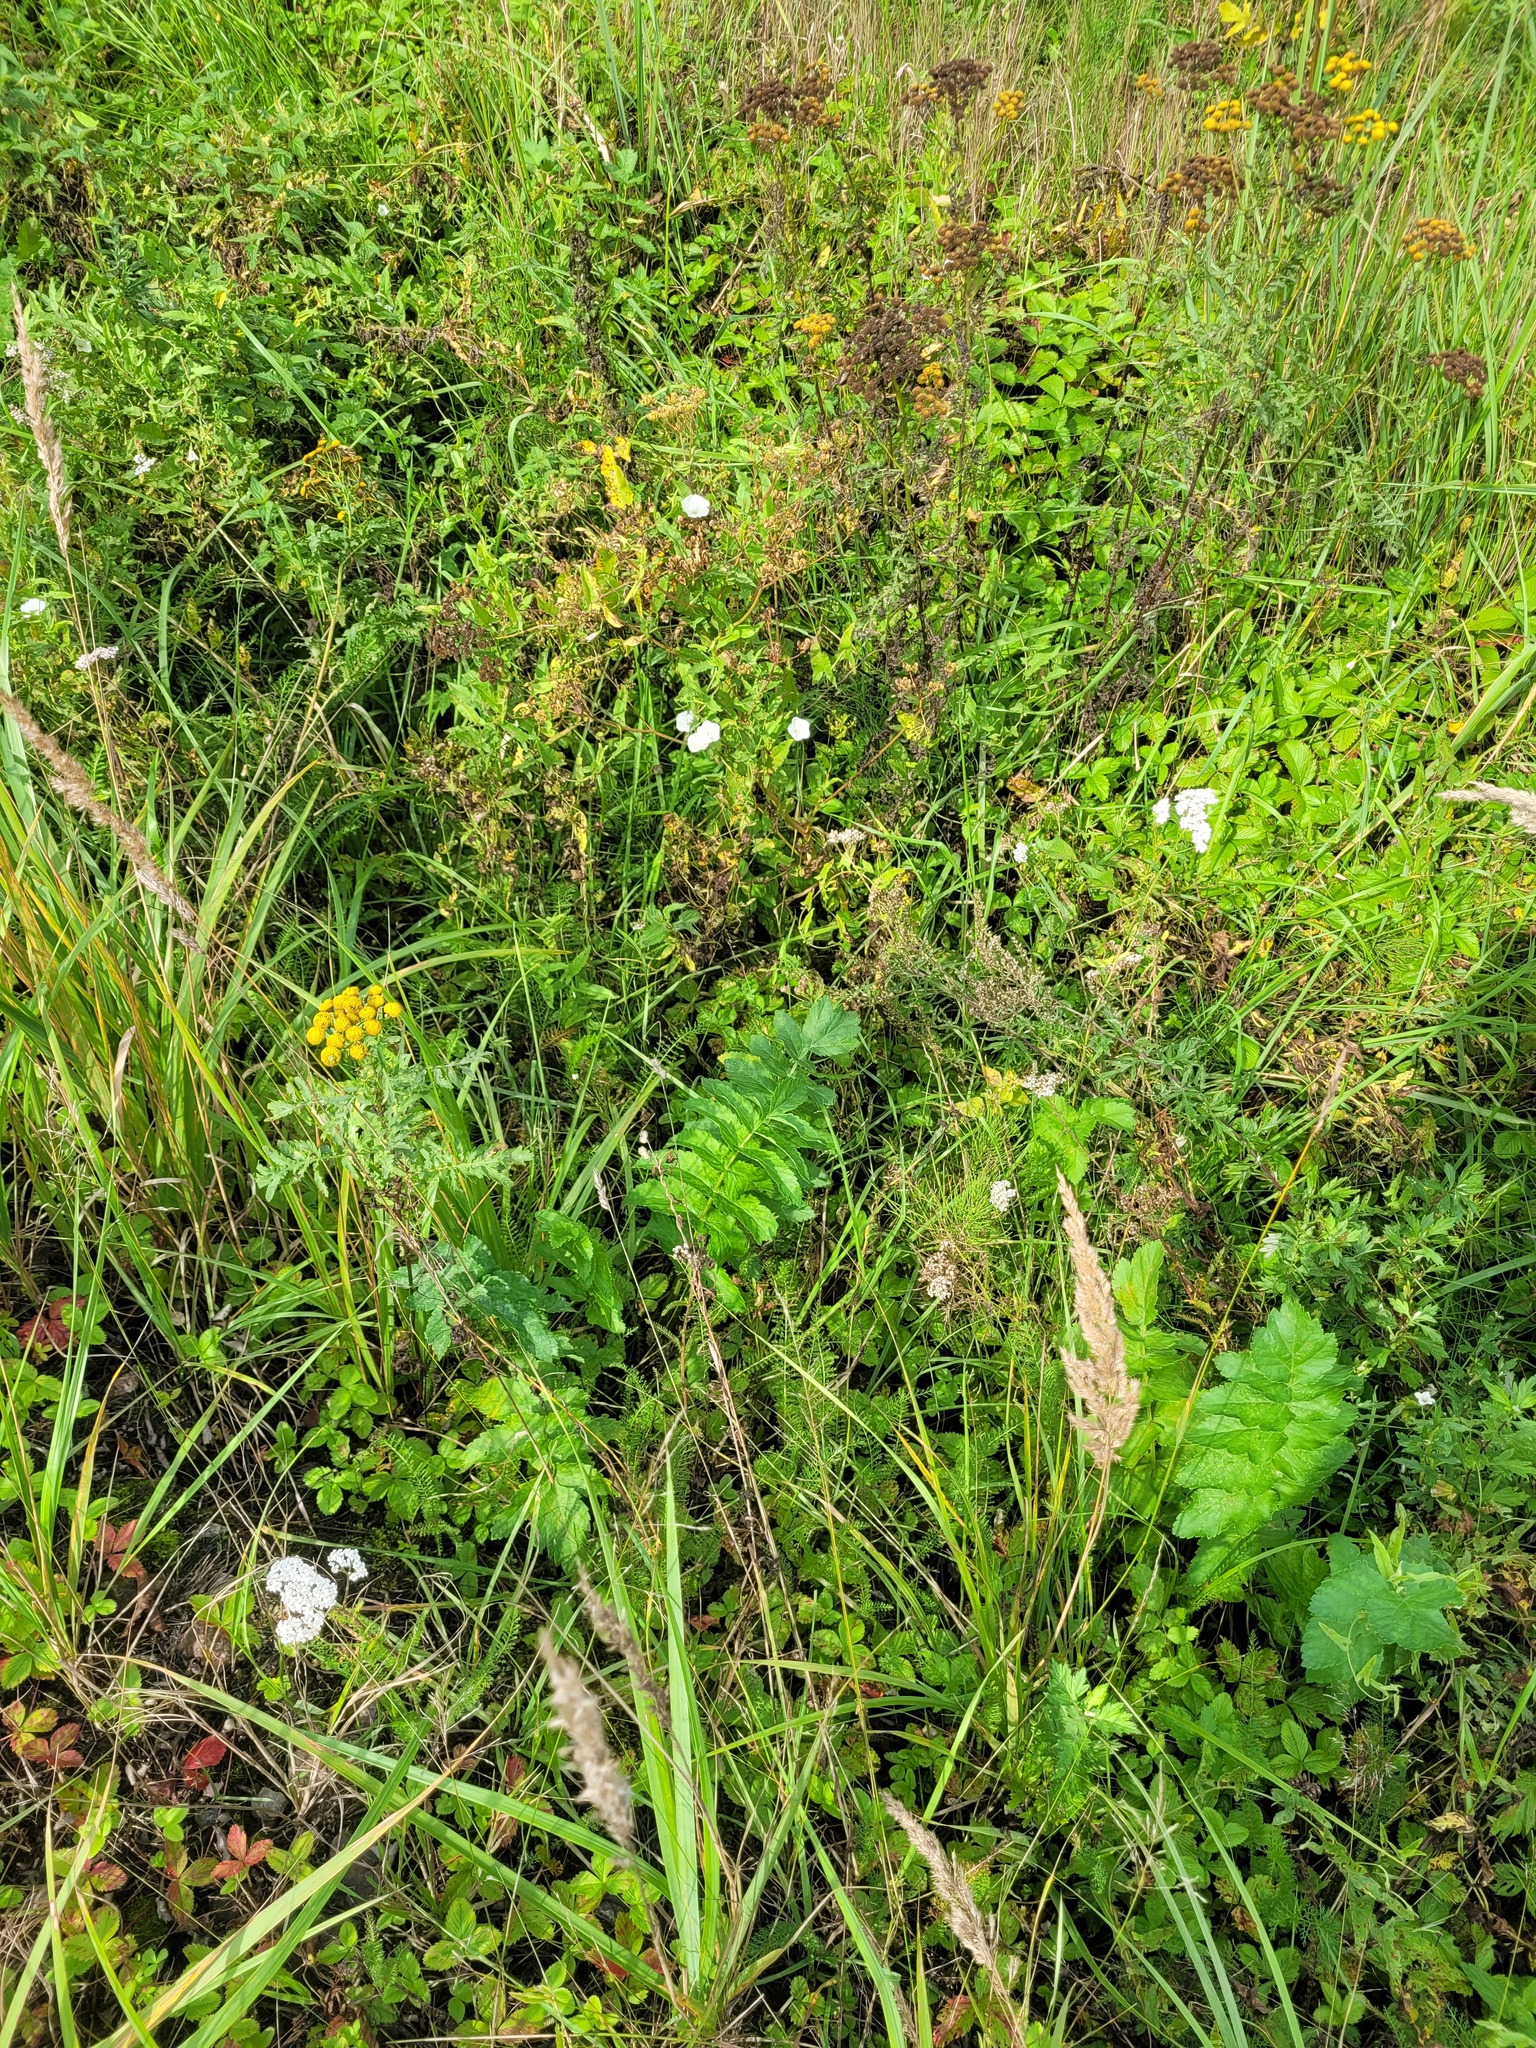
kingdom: Plantae
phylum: Tracheophyta
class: Magnoliopsida
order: Apiales
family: Apiaceae
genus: Pastinaca
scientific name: Pastinaca sativa
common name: Wild parsnip
